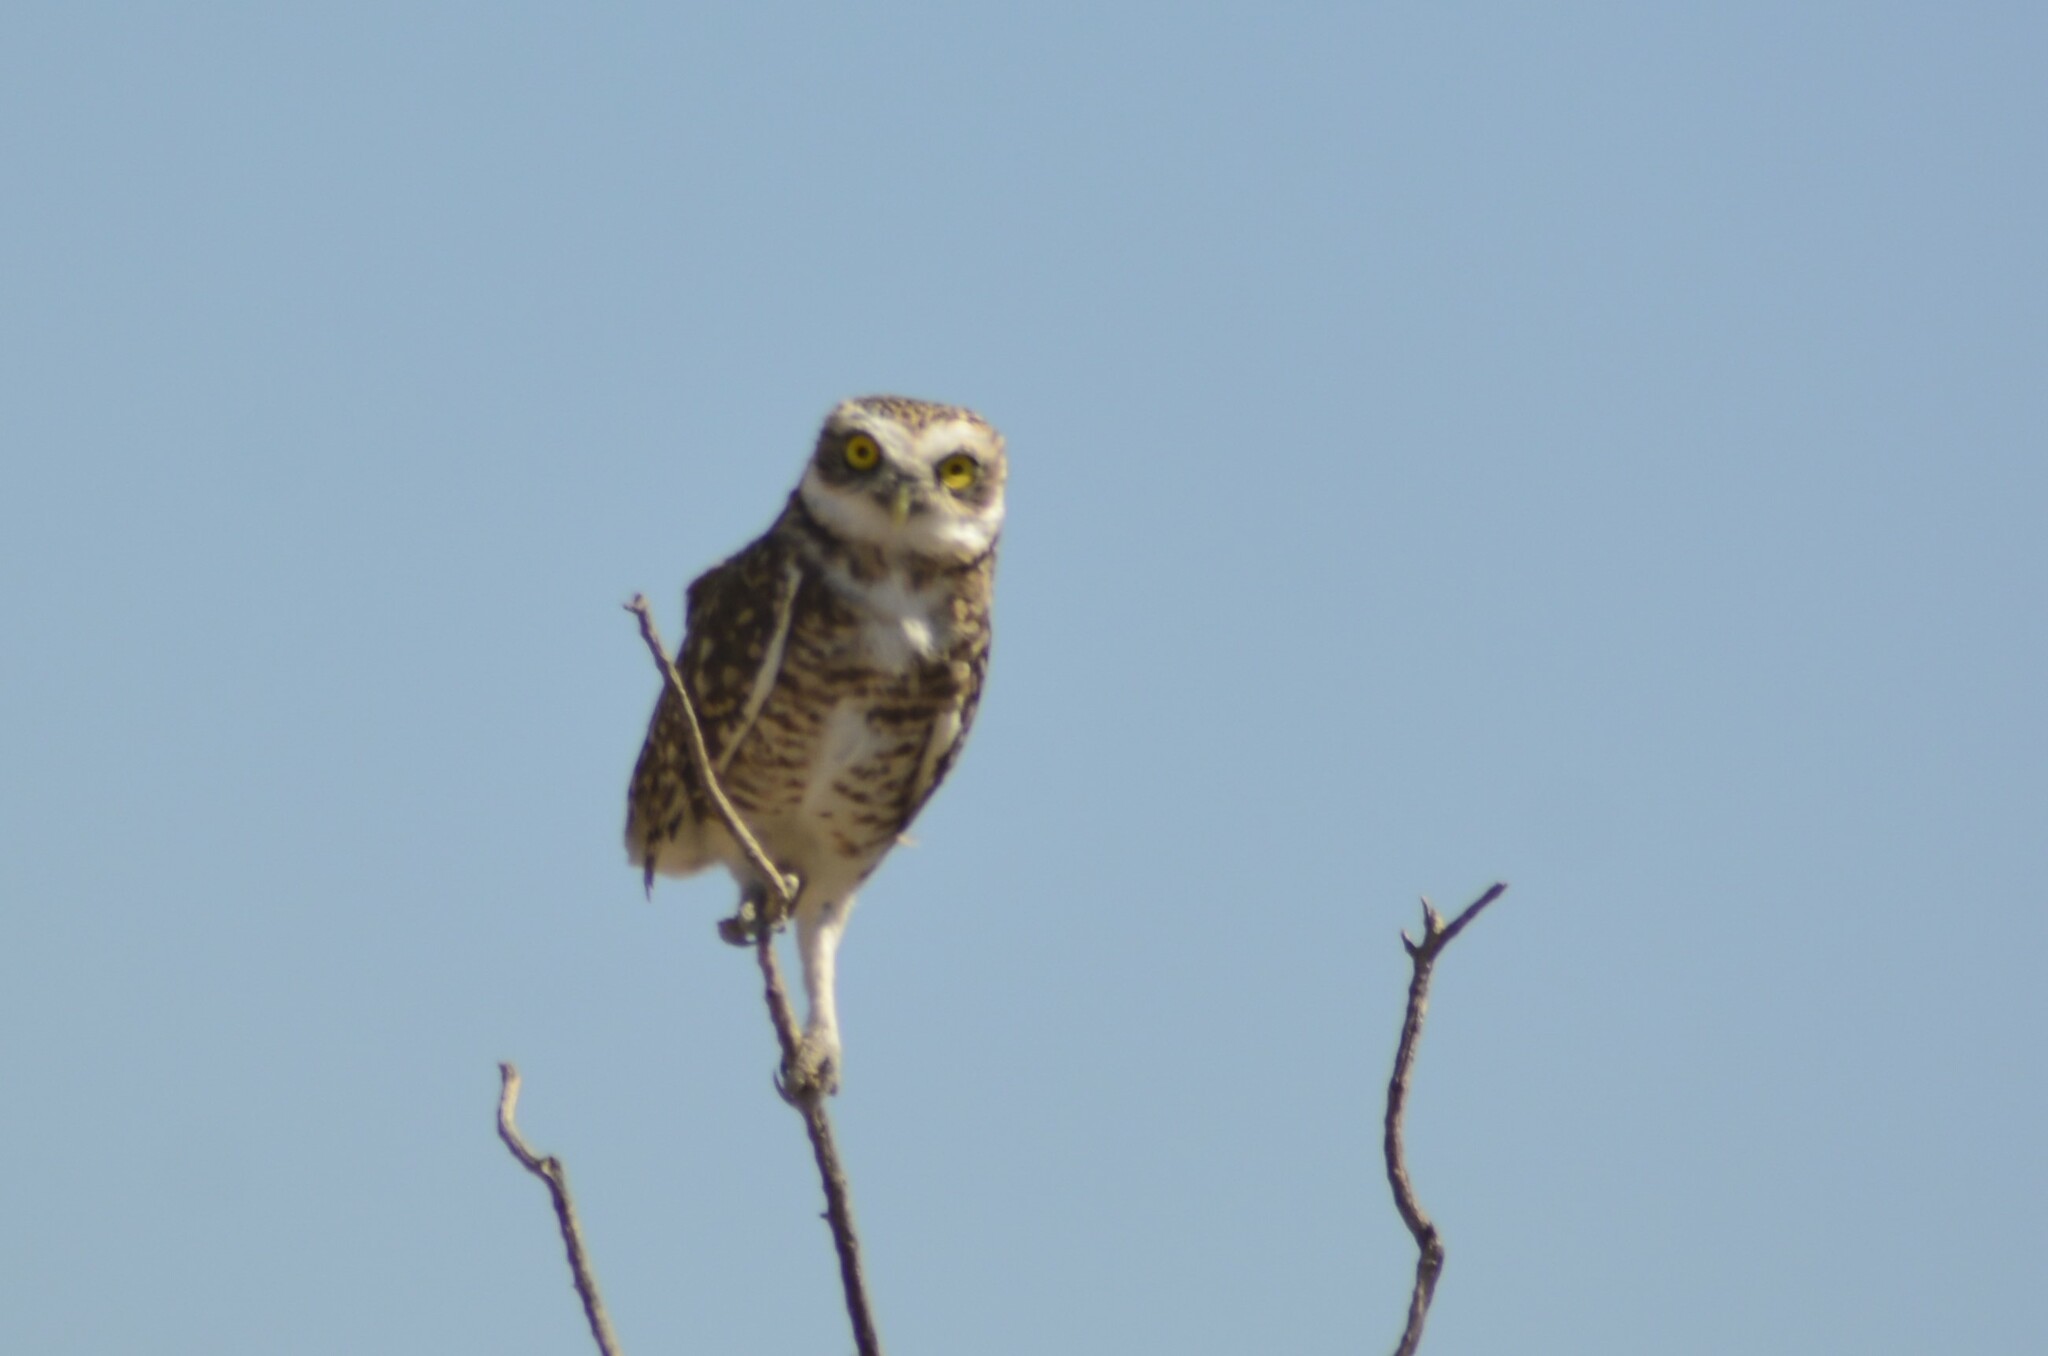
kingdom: Animalia
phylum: Chordata
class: Aves
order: Strigiformes
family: Strigidae
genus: Athene
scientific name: Athene cunicularia
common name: Burrowing owl
